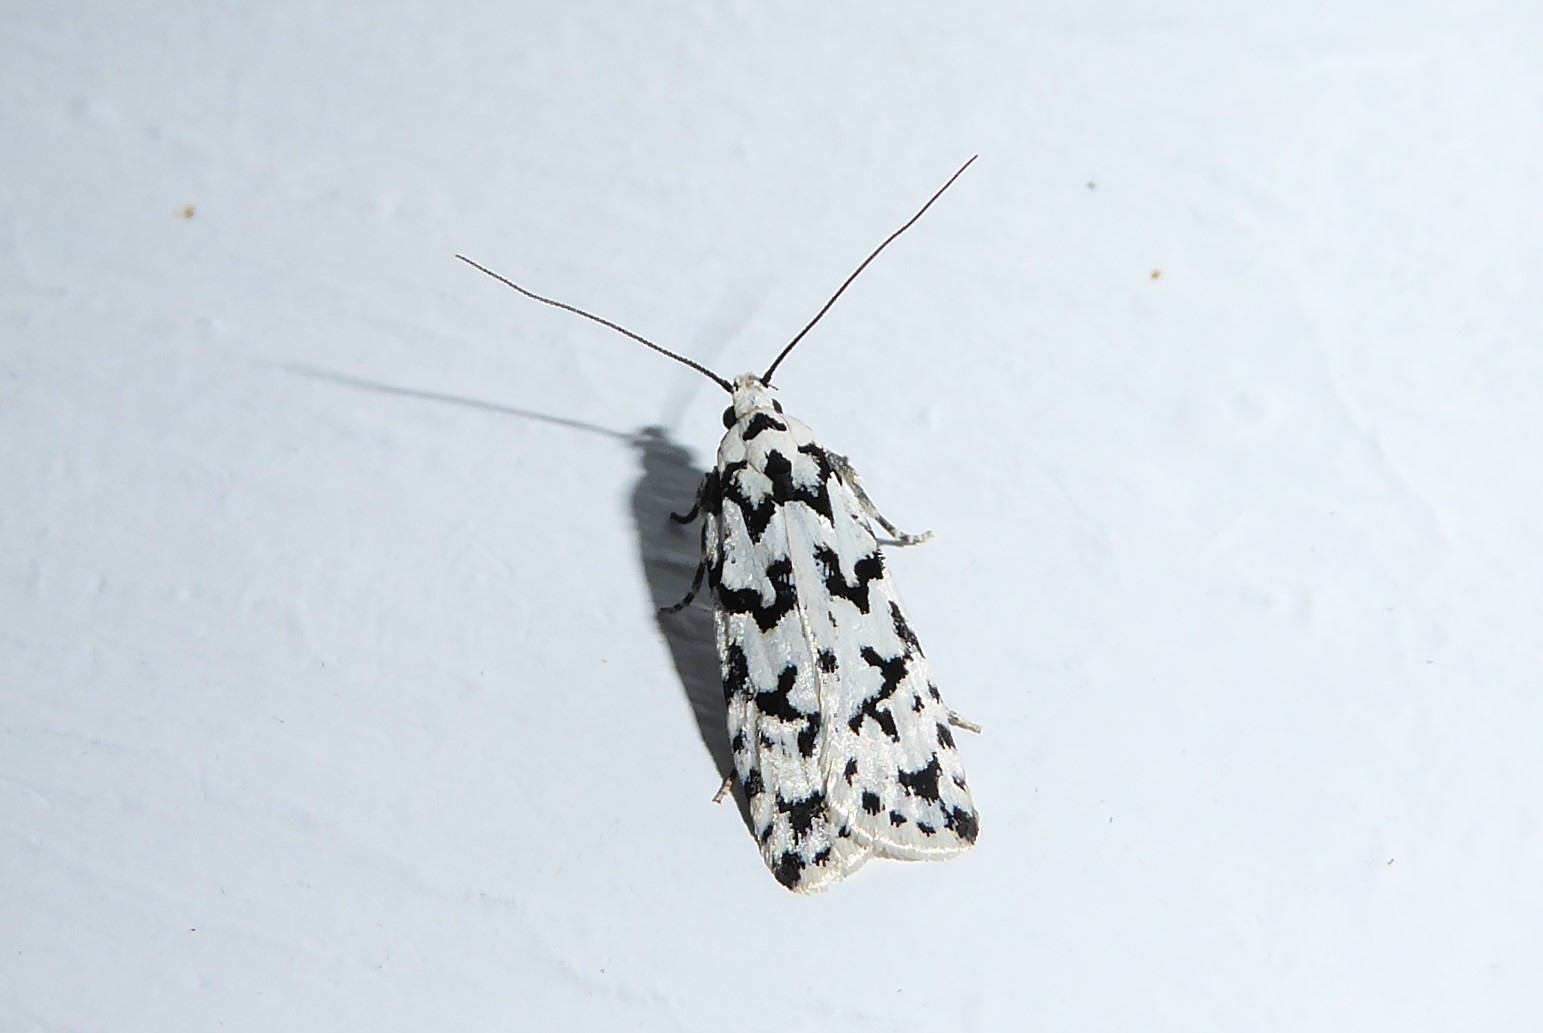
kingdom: Animalia
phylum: Arthropoda
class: Insecta
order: Lepidoptera
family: Oecophoridae
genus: Izatha
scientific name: Izatha katadiktya
